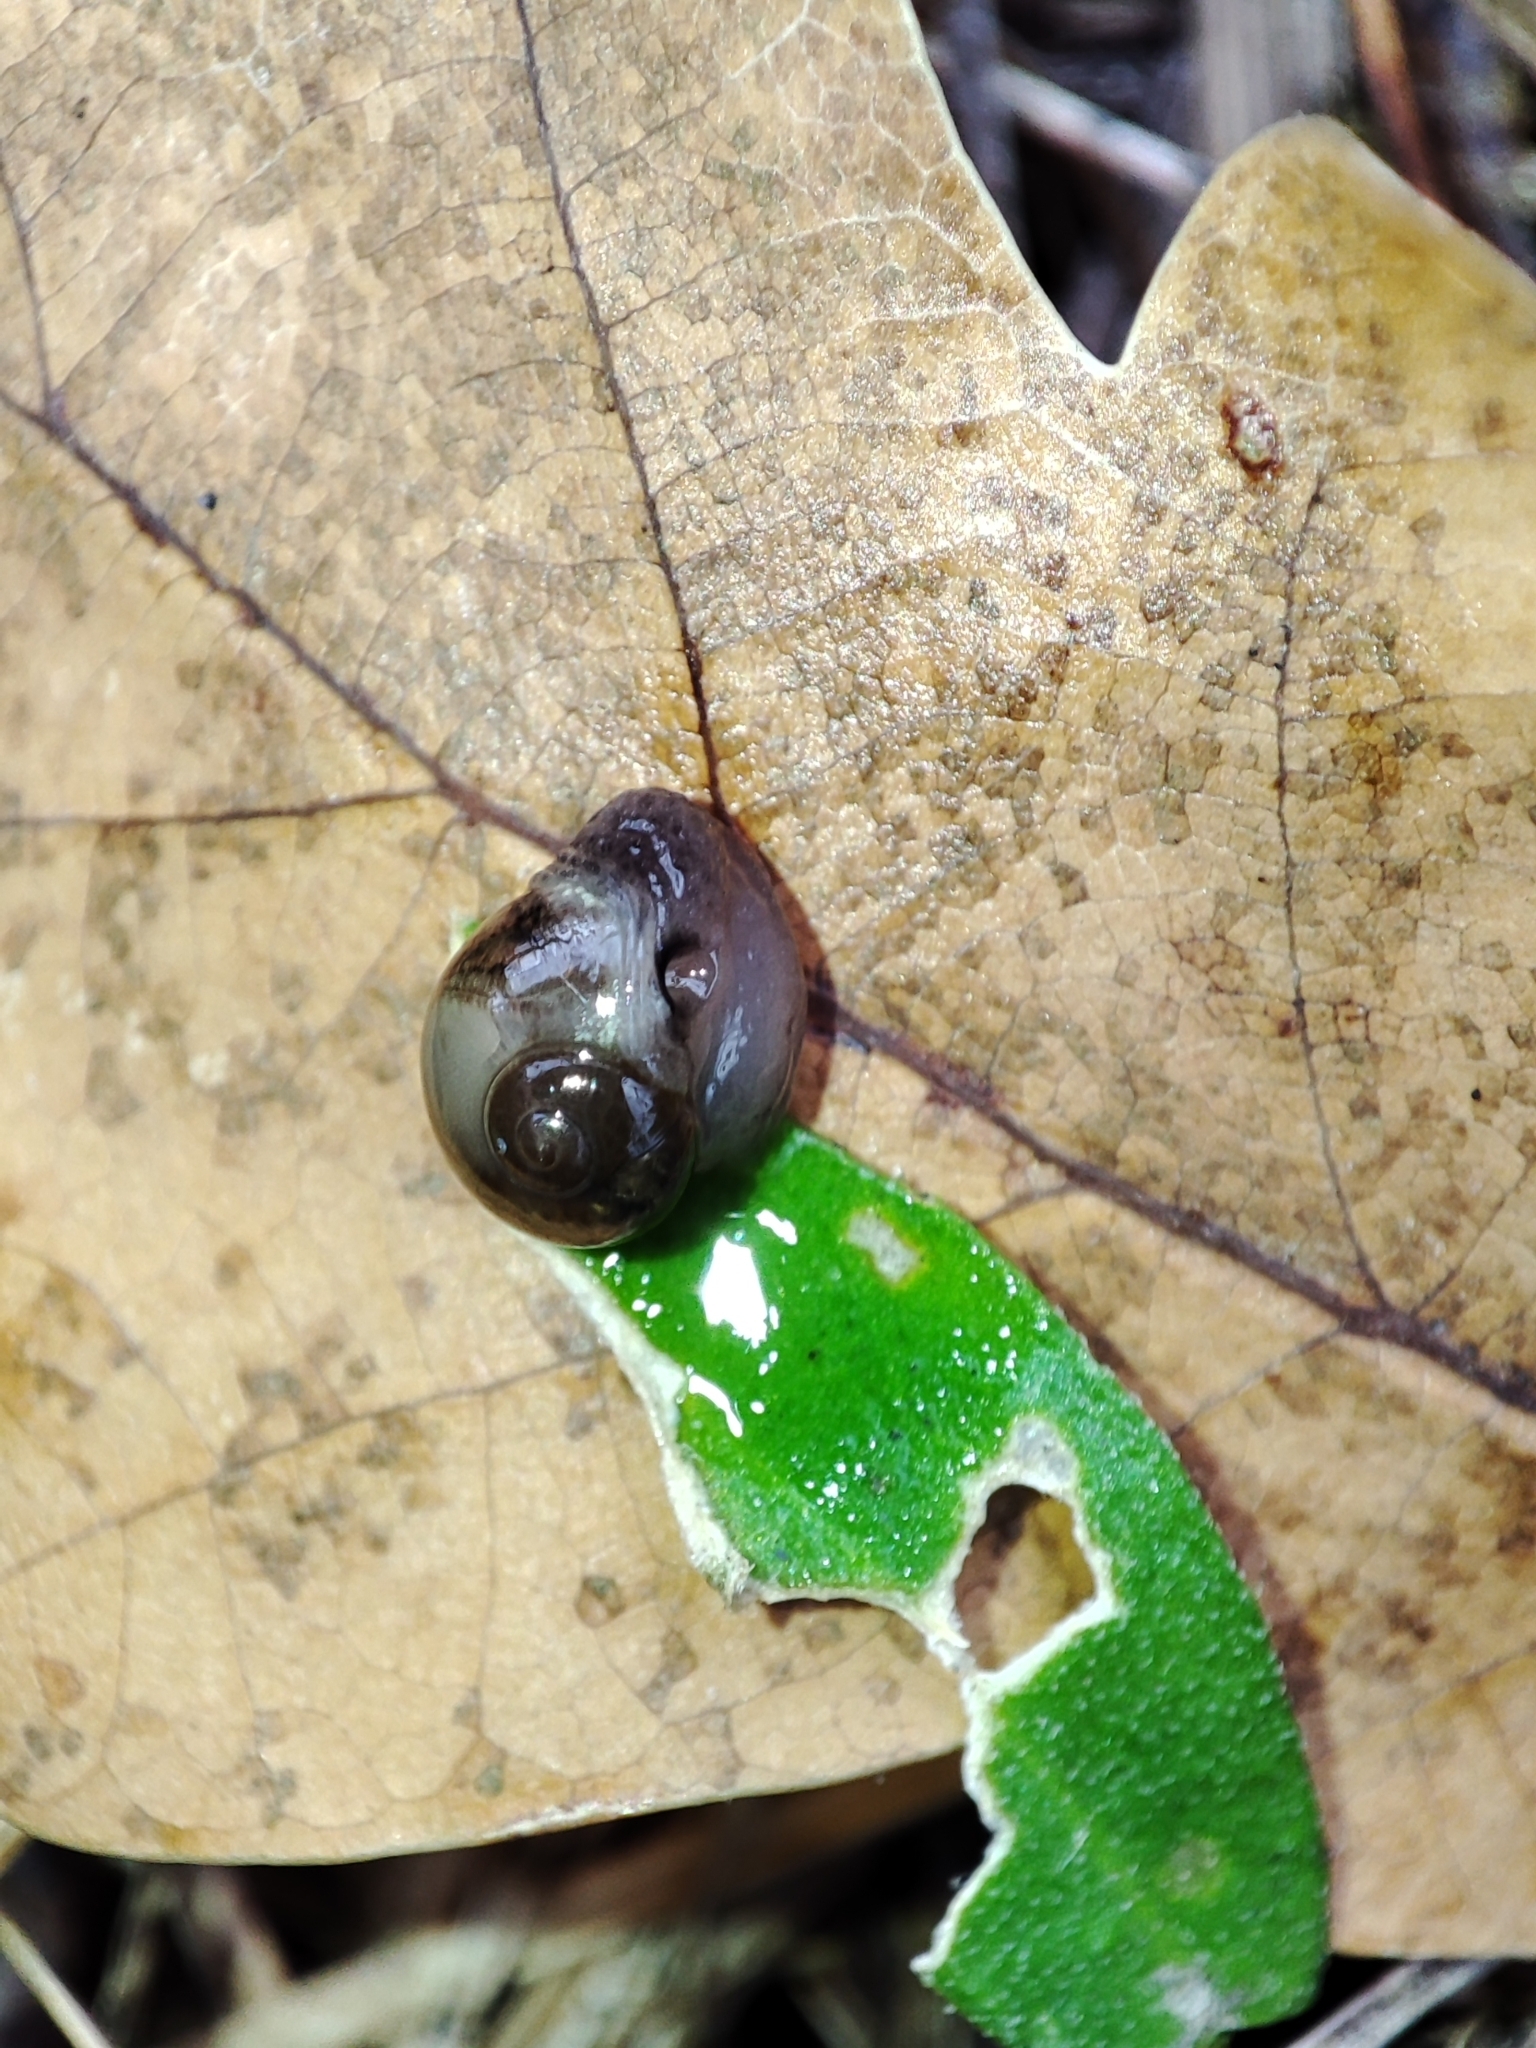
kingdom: Animalia
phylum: Mollusca
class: Gastropoda
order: Stylommatophora
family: Vitrinidae
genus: Vitrina
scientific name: Vitrina pellucida
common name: Pellucid glass snail
